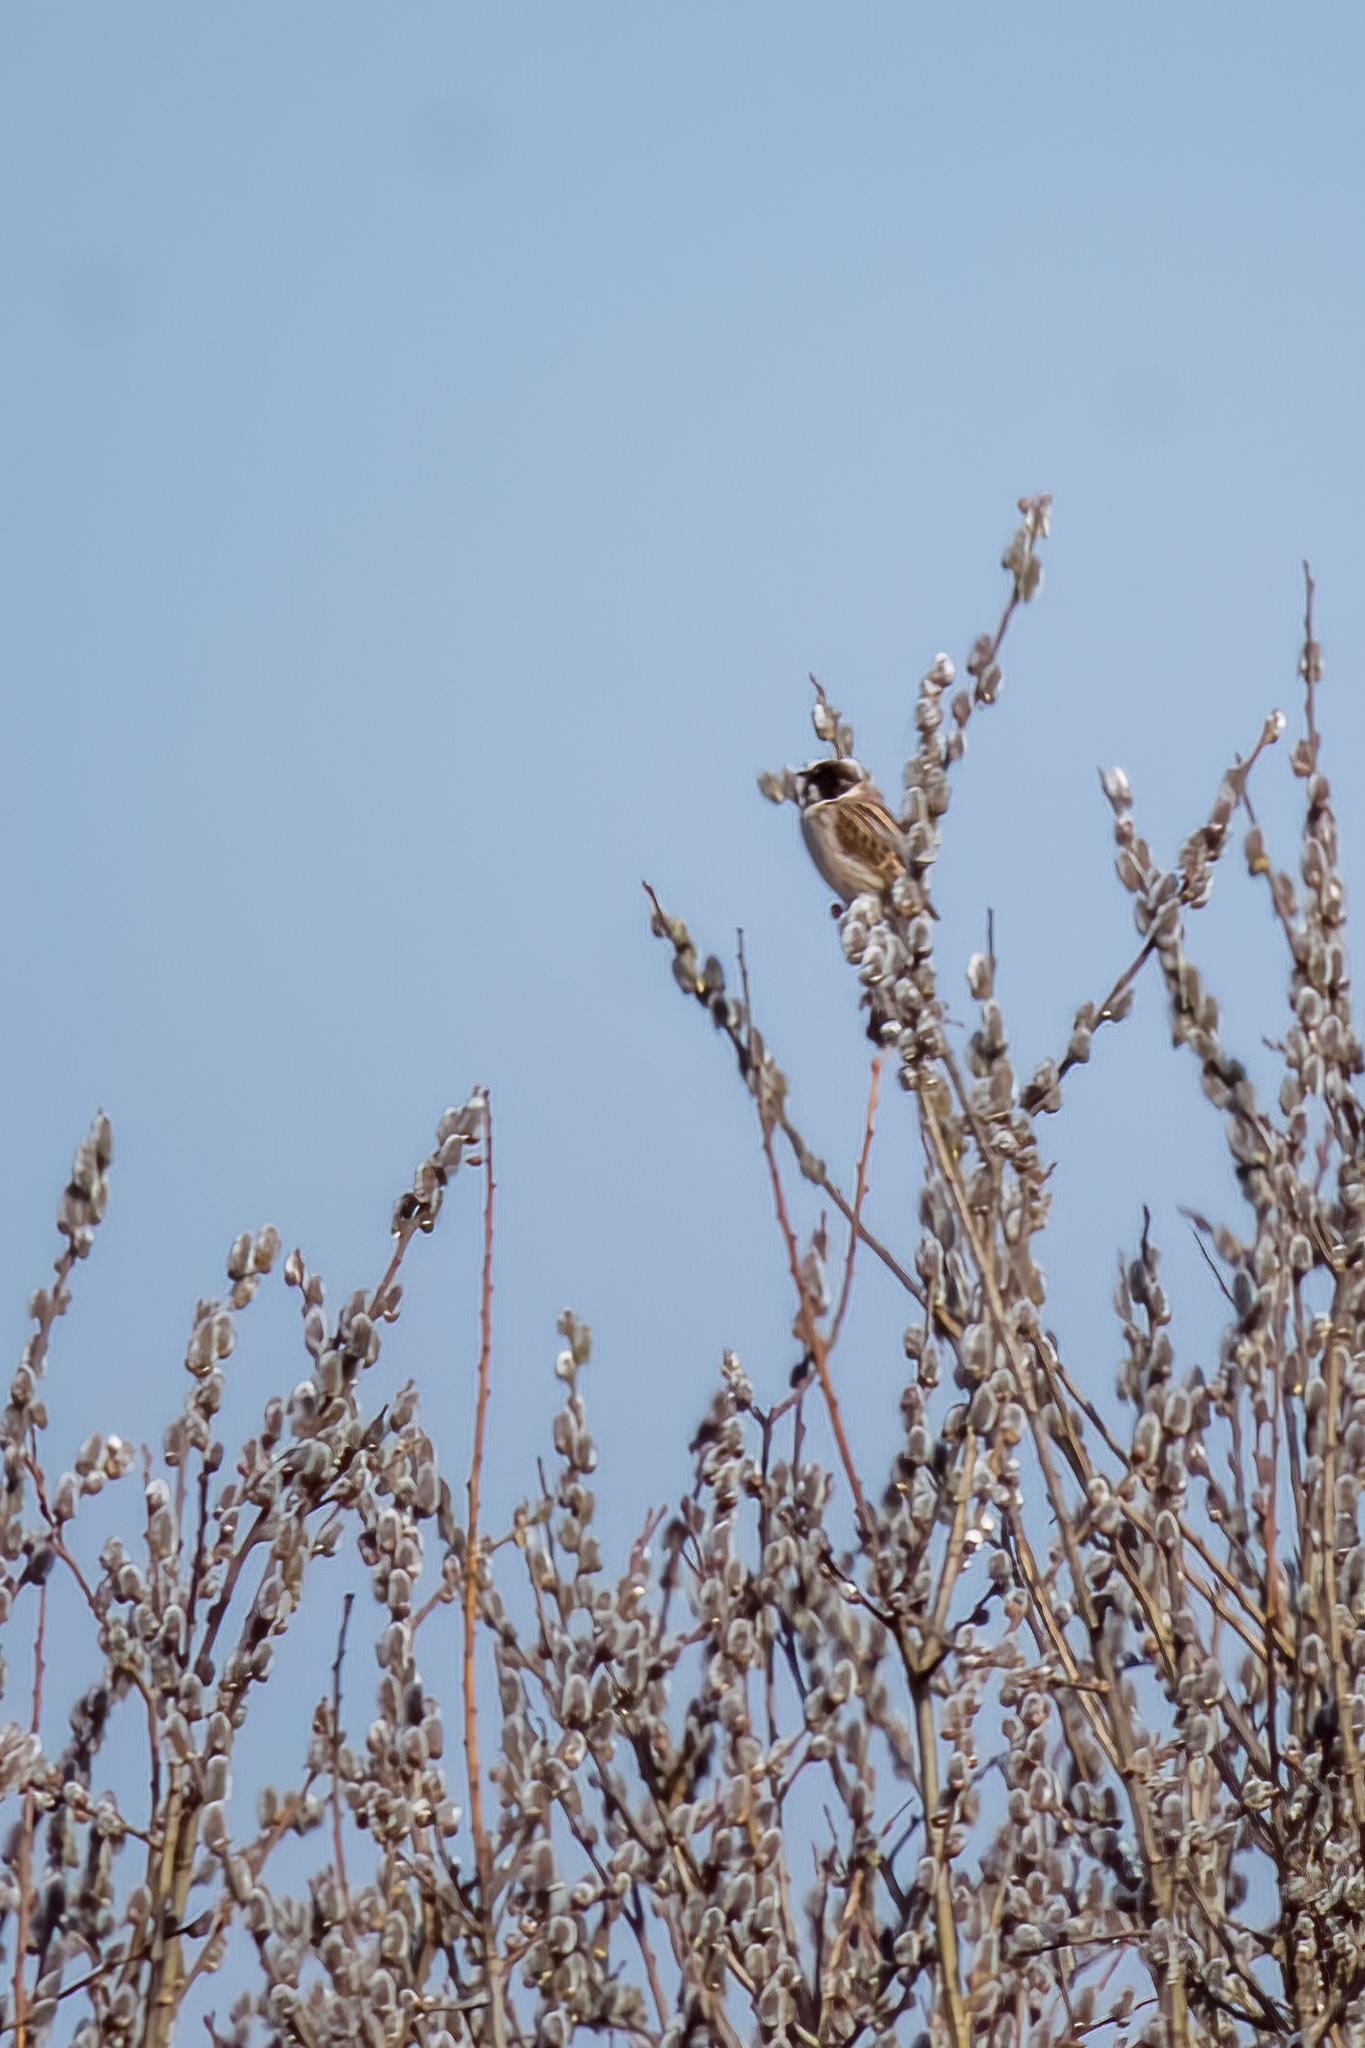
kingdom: Animalia
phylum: Chordata
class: Aves
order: Passeriformes
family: Emberizidae
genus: Emberiza
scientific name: Emberiza schoeniclus
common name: Reed bunting
